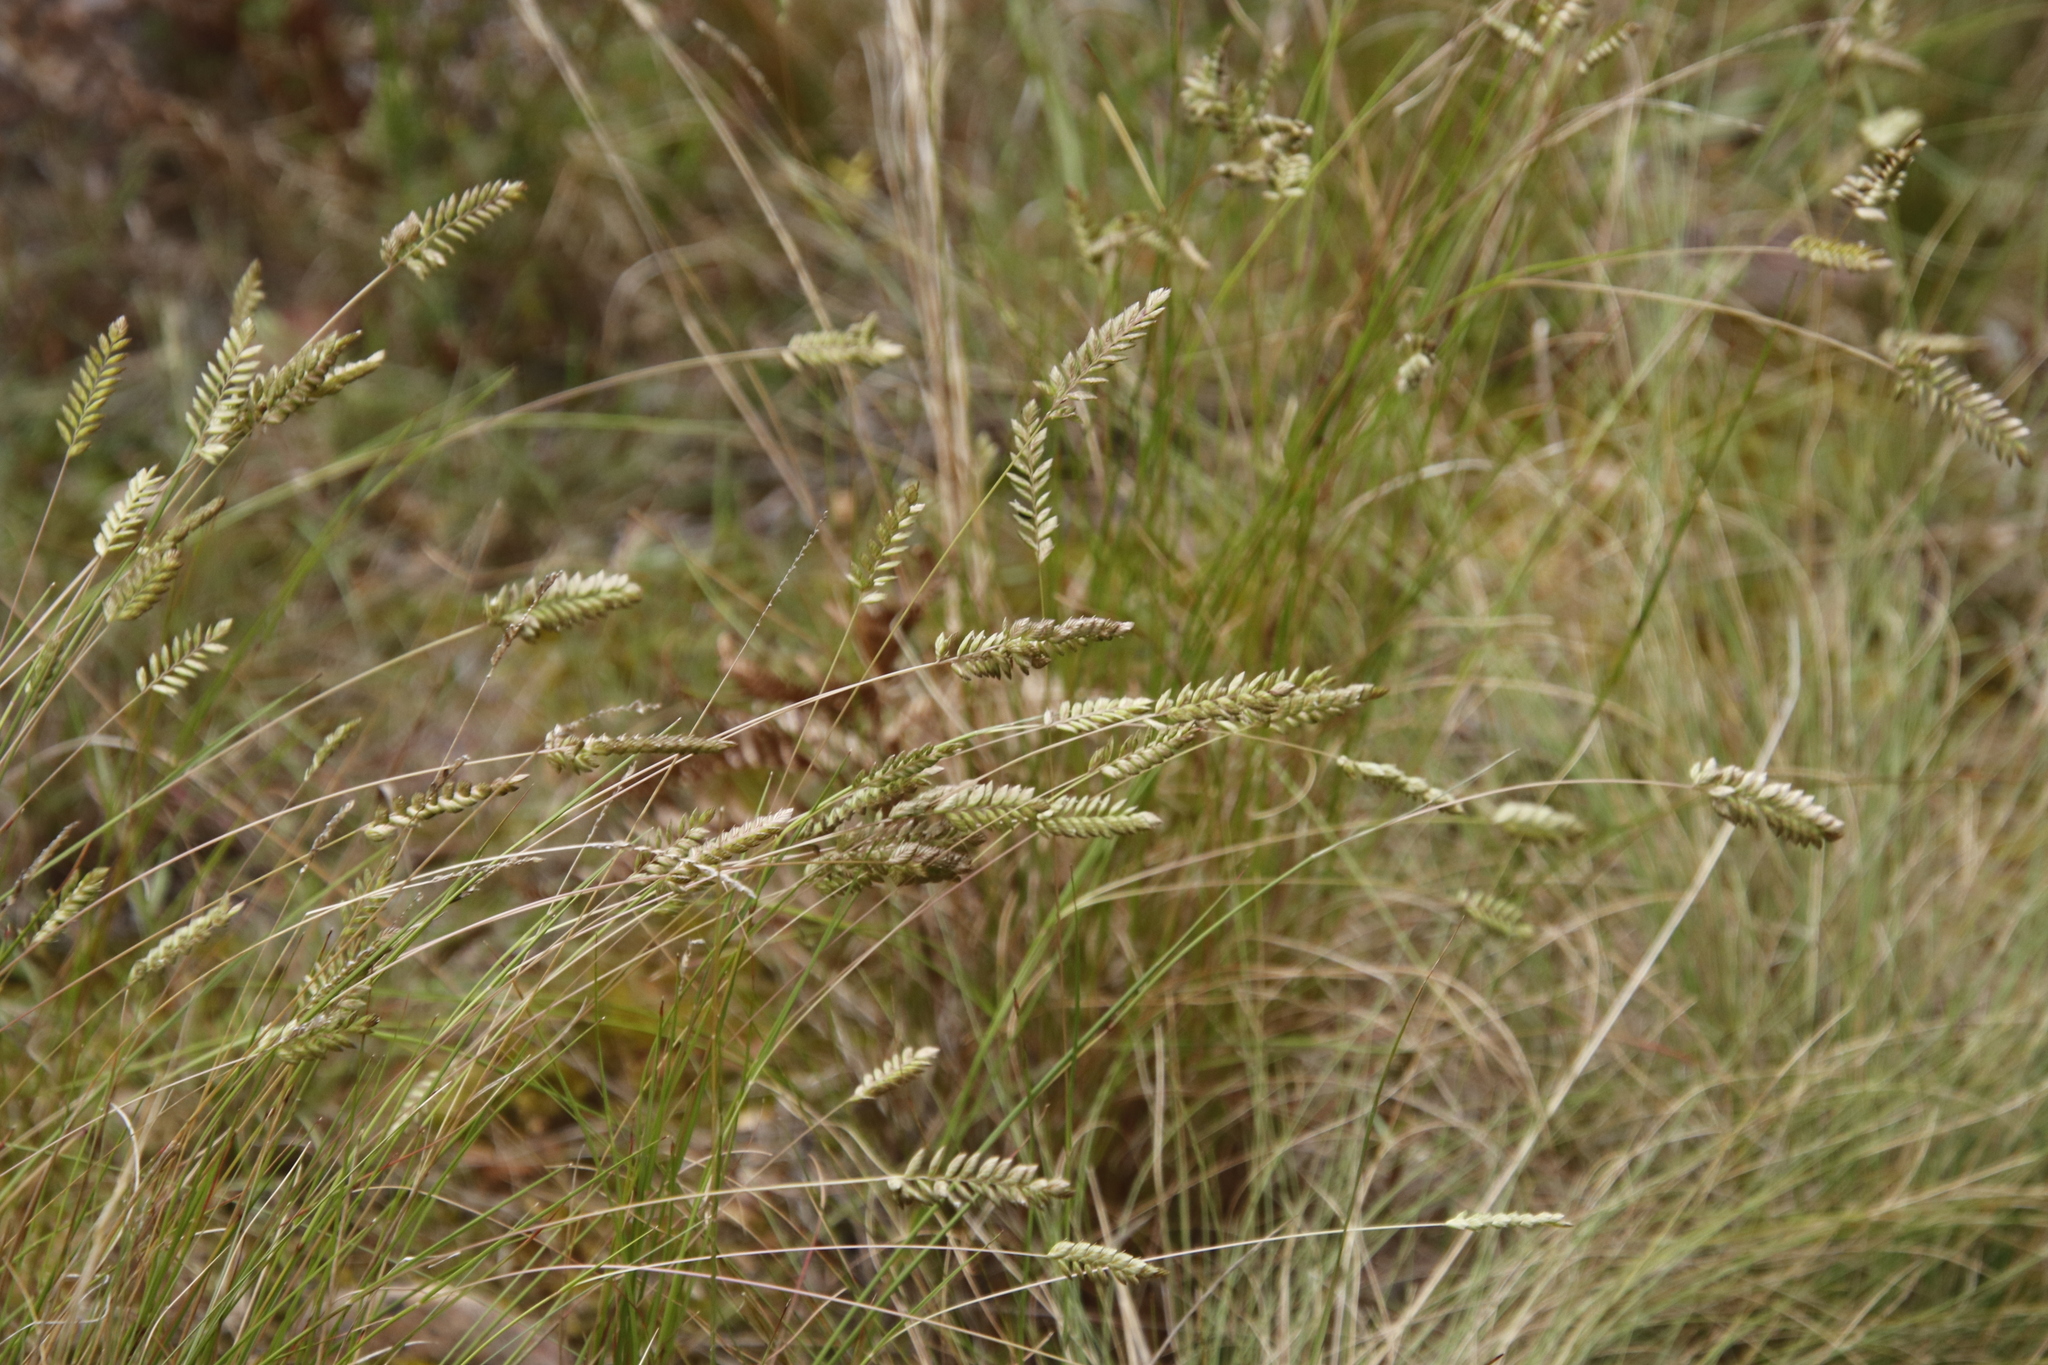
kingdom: Plantae
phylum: Tracheophyta
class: Liliopsida
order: Poales
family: Poaceae
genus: Tribolium
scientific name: Tribolium uniolae
